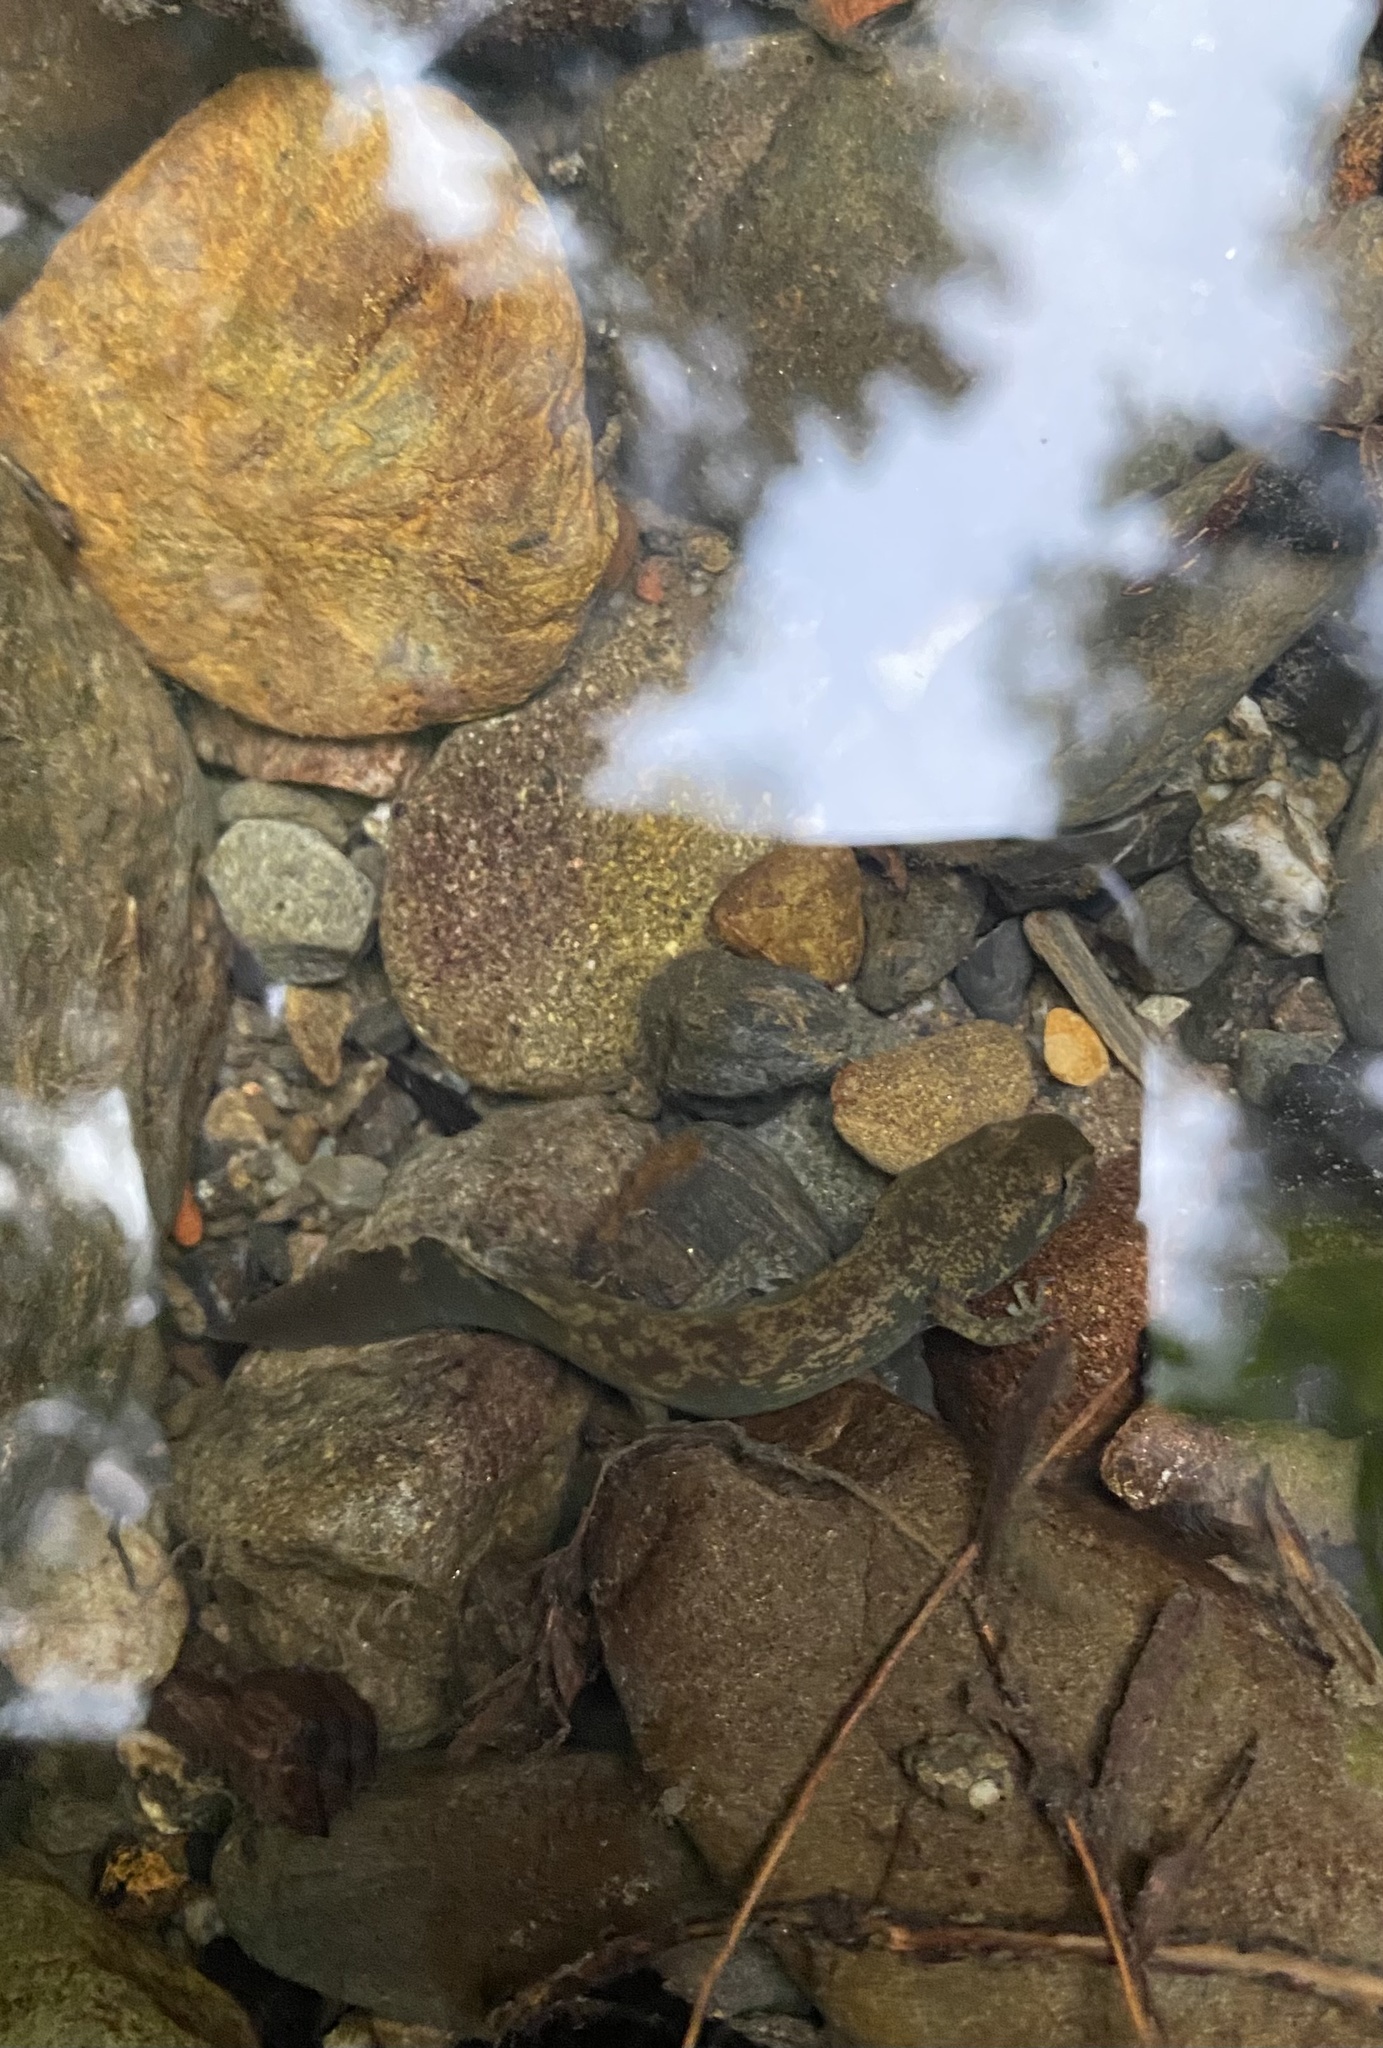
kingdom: Animalia
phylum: Chordata
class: Amphibia
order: Caudata
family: Ambystomatidae
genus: Dicamptodon
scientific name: Dicamptodon tenebrosus
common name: Coastal giant salamander
